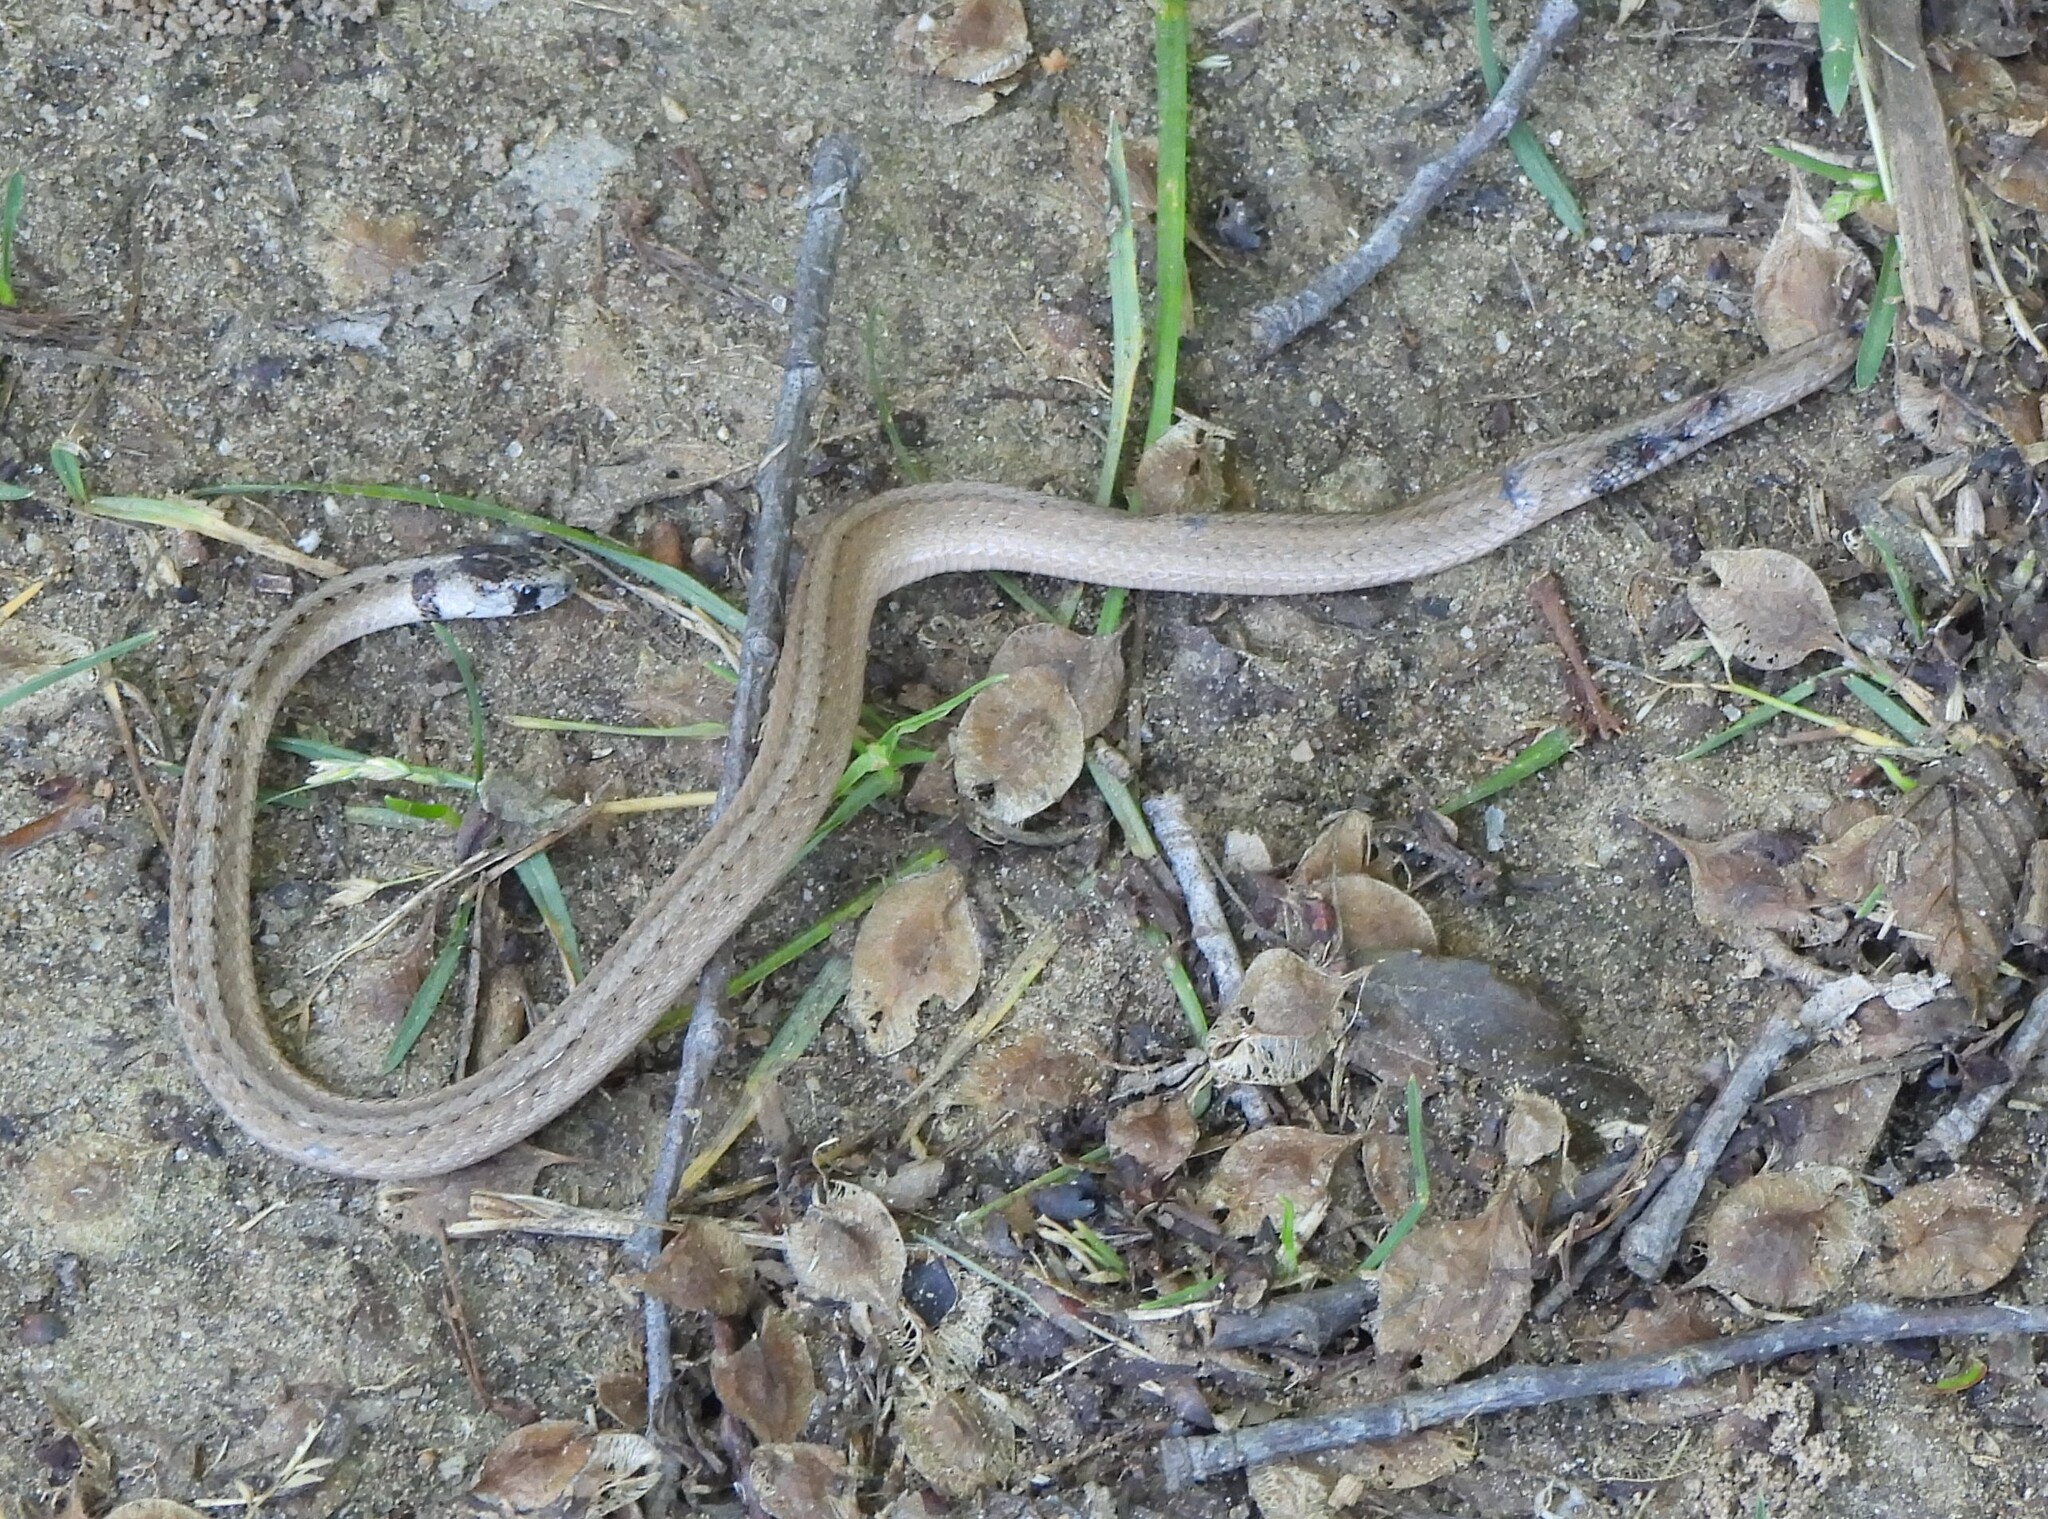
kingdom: Animalia
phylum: Chordata
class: Squamata
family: Colubridae
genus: Storeria
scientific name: Storeria dekayi
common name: (dekay’s) brown snake
